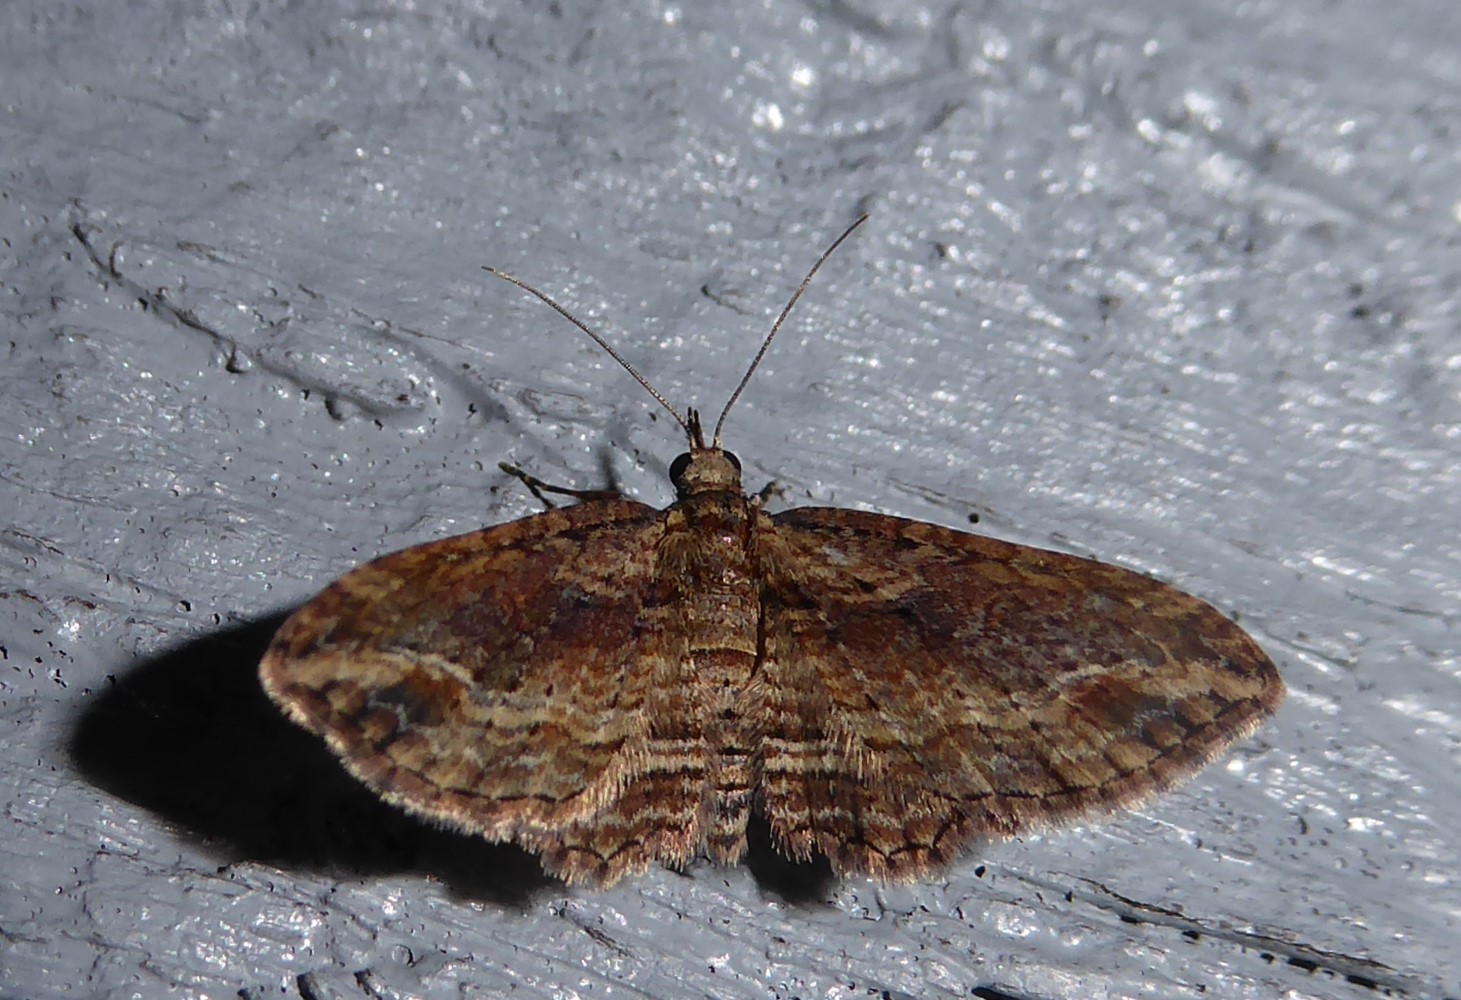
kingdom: Animalia
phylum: Arthropoda
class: Insecta
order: Lepidoptera
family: Geometridae
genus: Chloroclystis
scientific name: Chloroclystis filata
